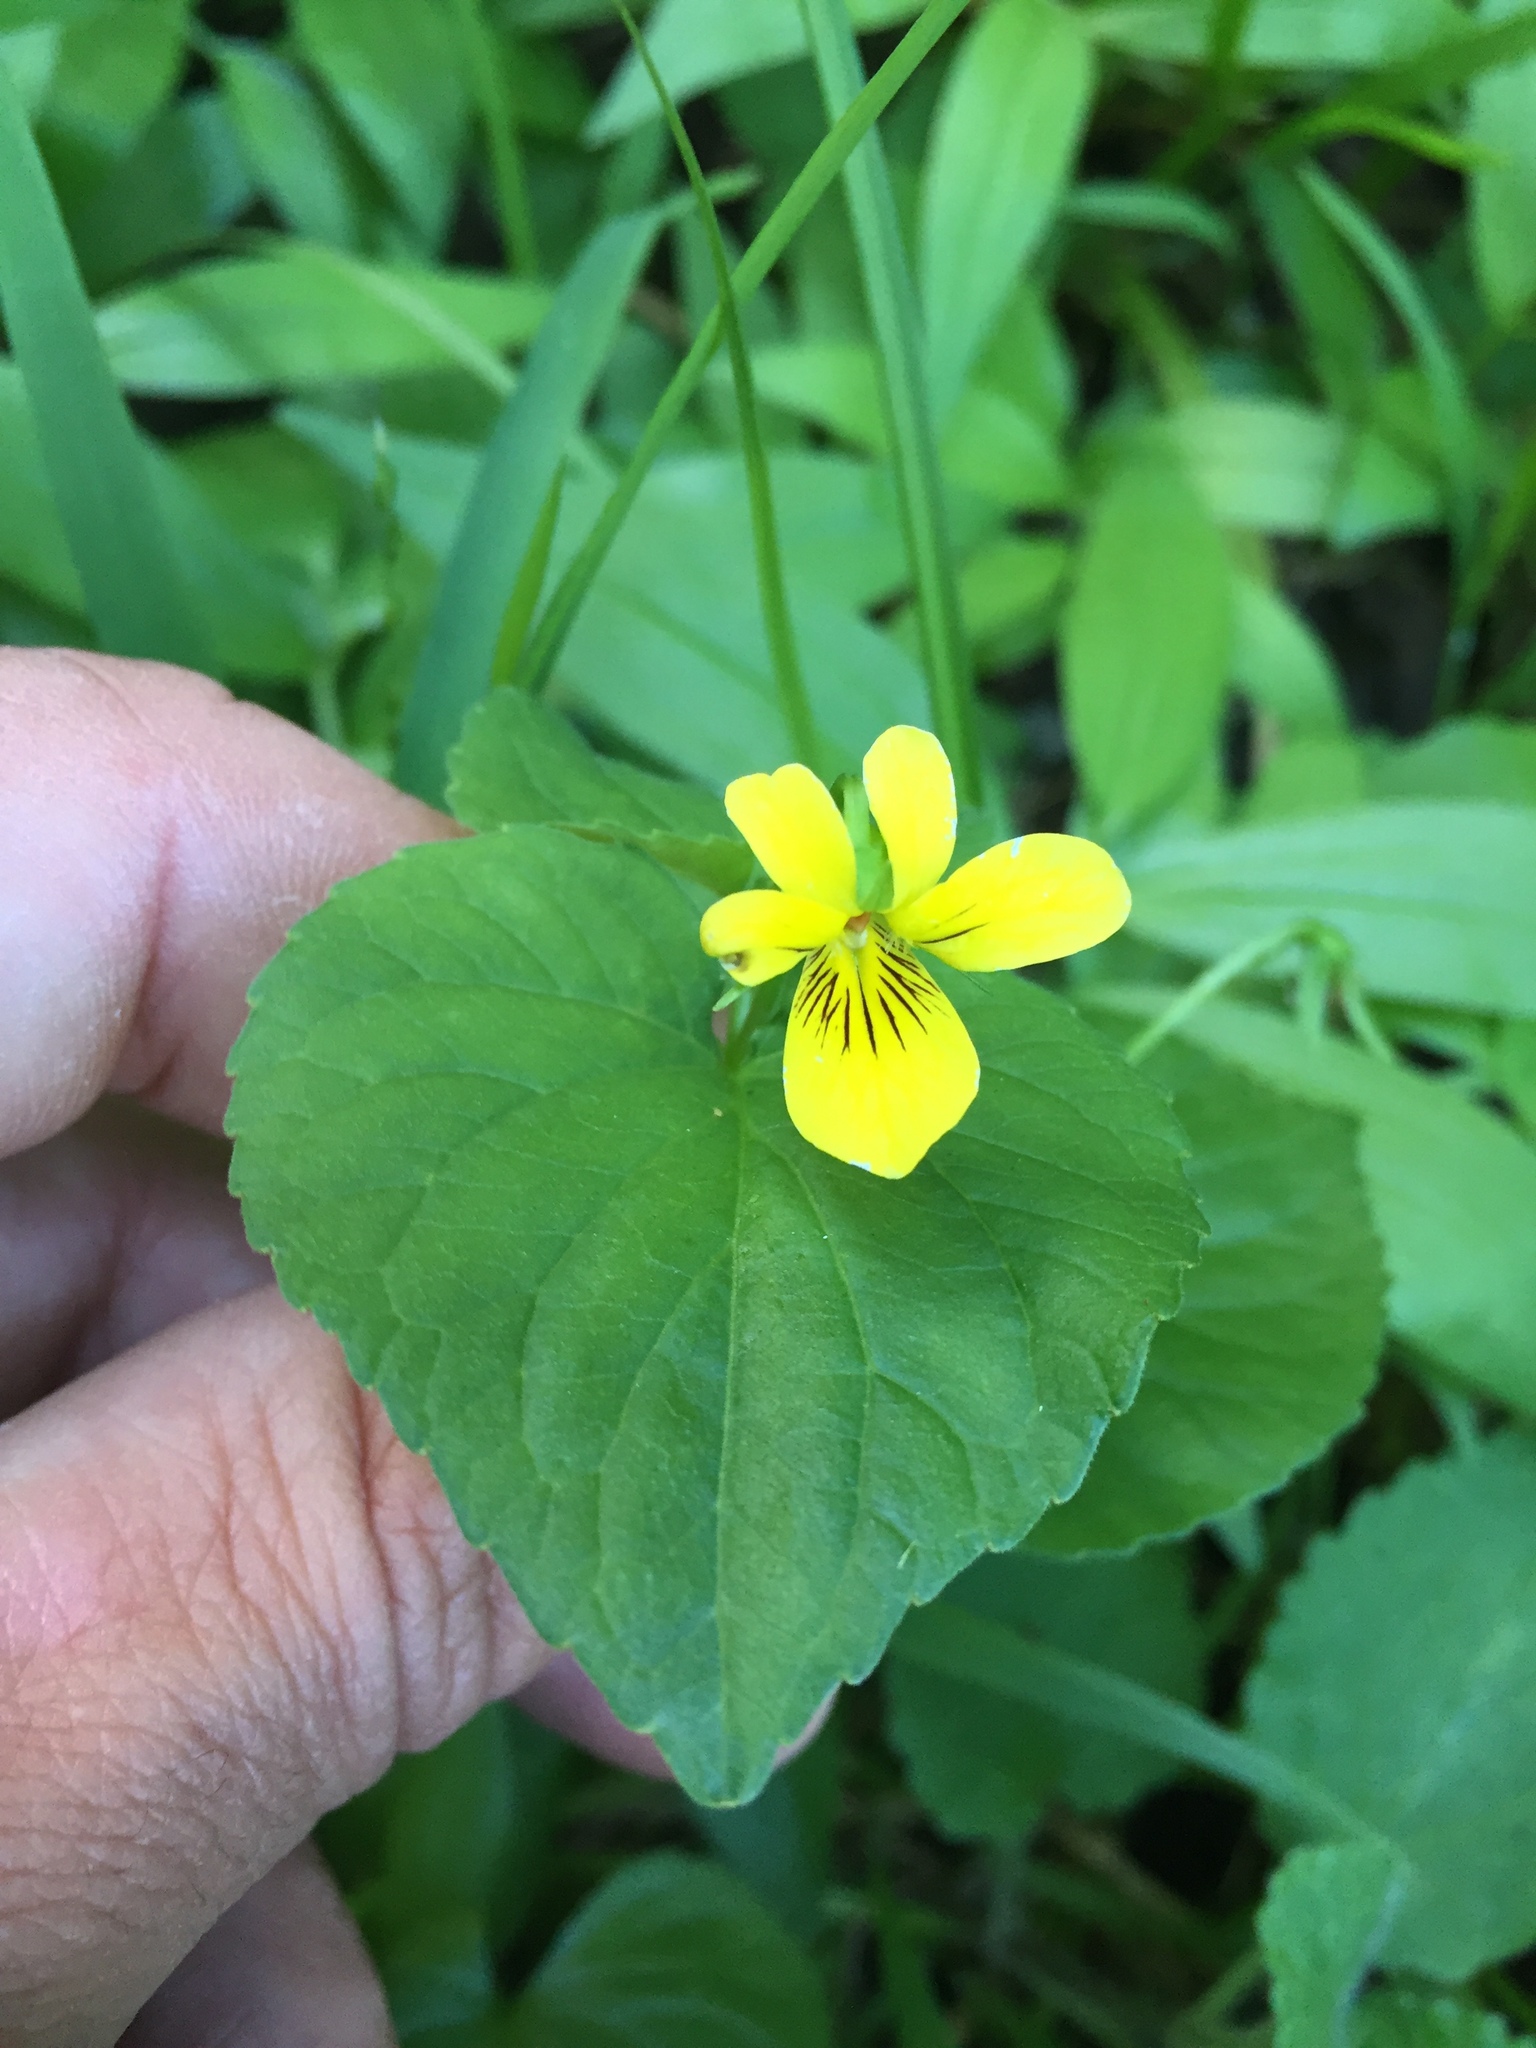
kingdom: Plantae
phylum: Tracheophyta
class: Magnoliopsida
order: Malpighiales
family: Violaceae
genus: Viola
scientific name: Viola glabella
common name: Stream violet
